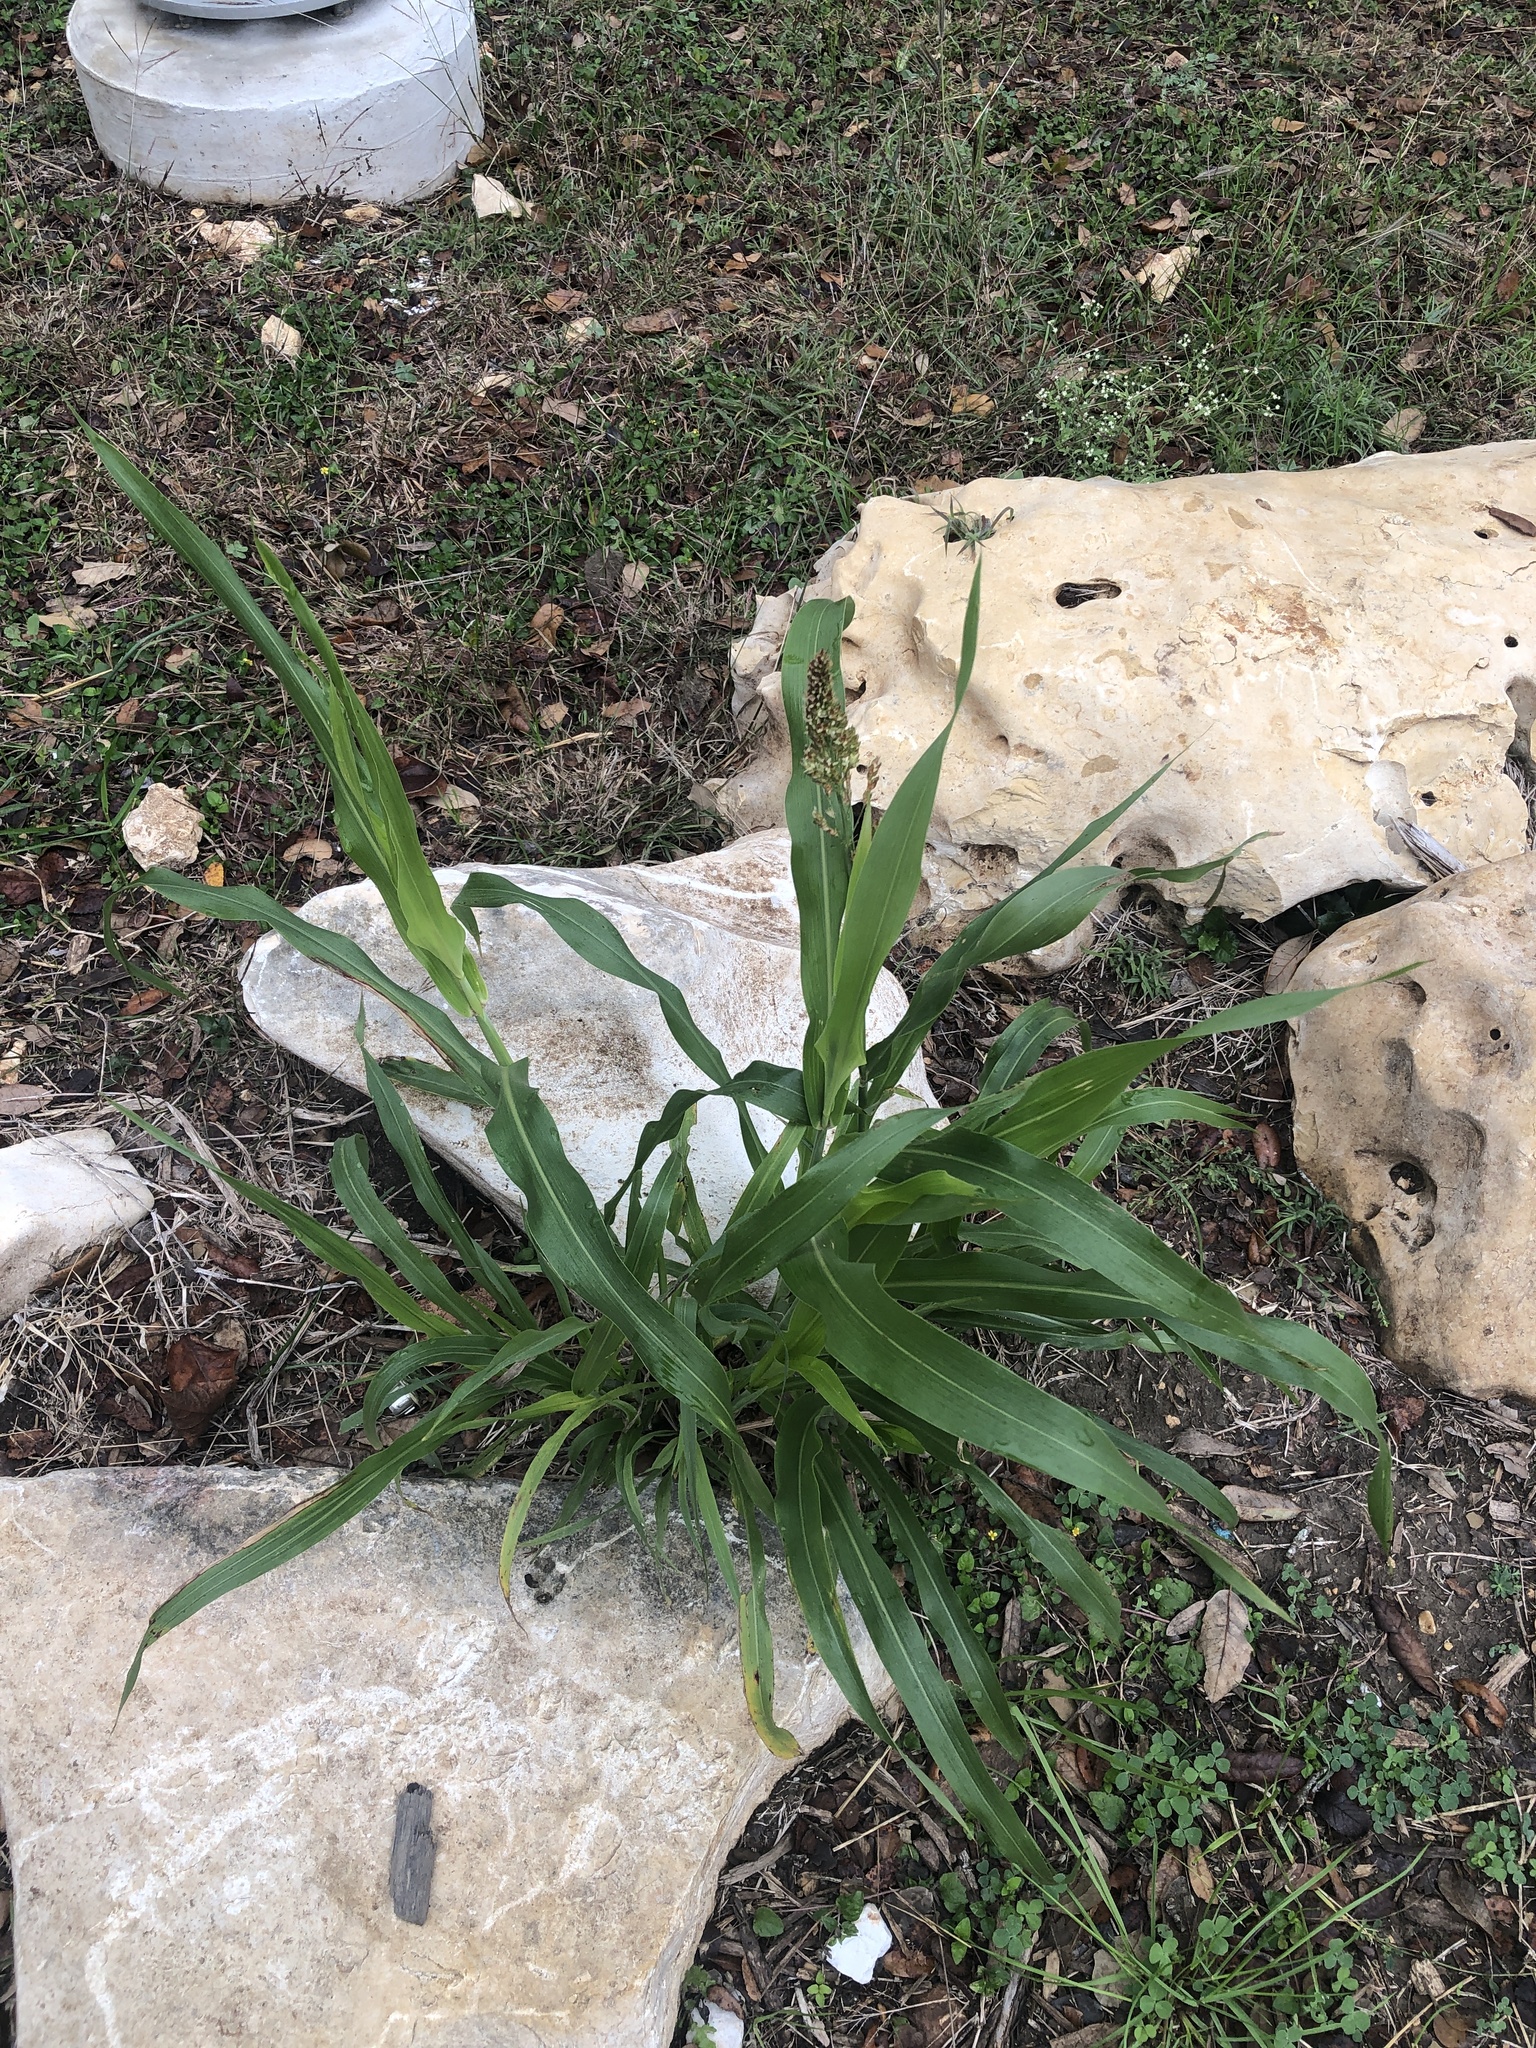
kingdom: Plantae
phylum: Tracheophyta
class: Liliopsida
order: Poales
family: Poaceae
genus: Sorghum
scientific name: Sorghum bicolor
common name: Sorghum
